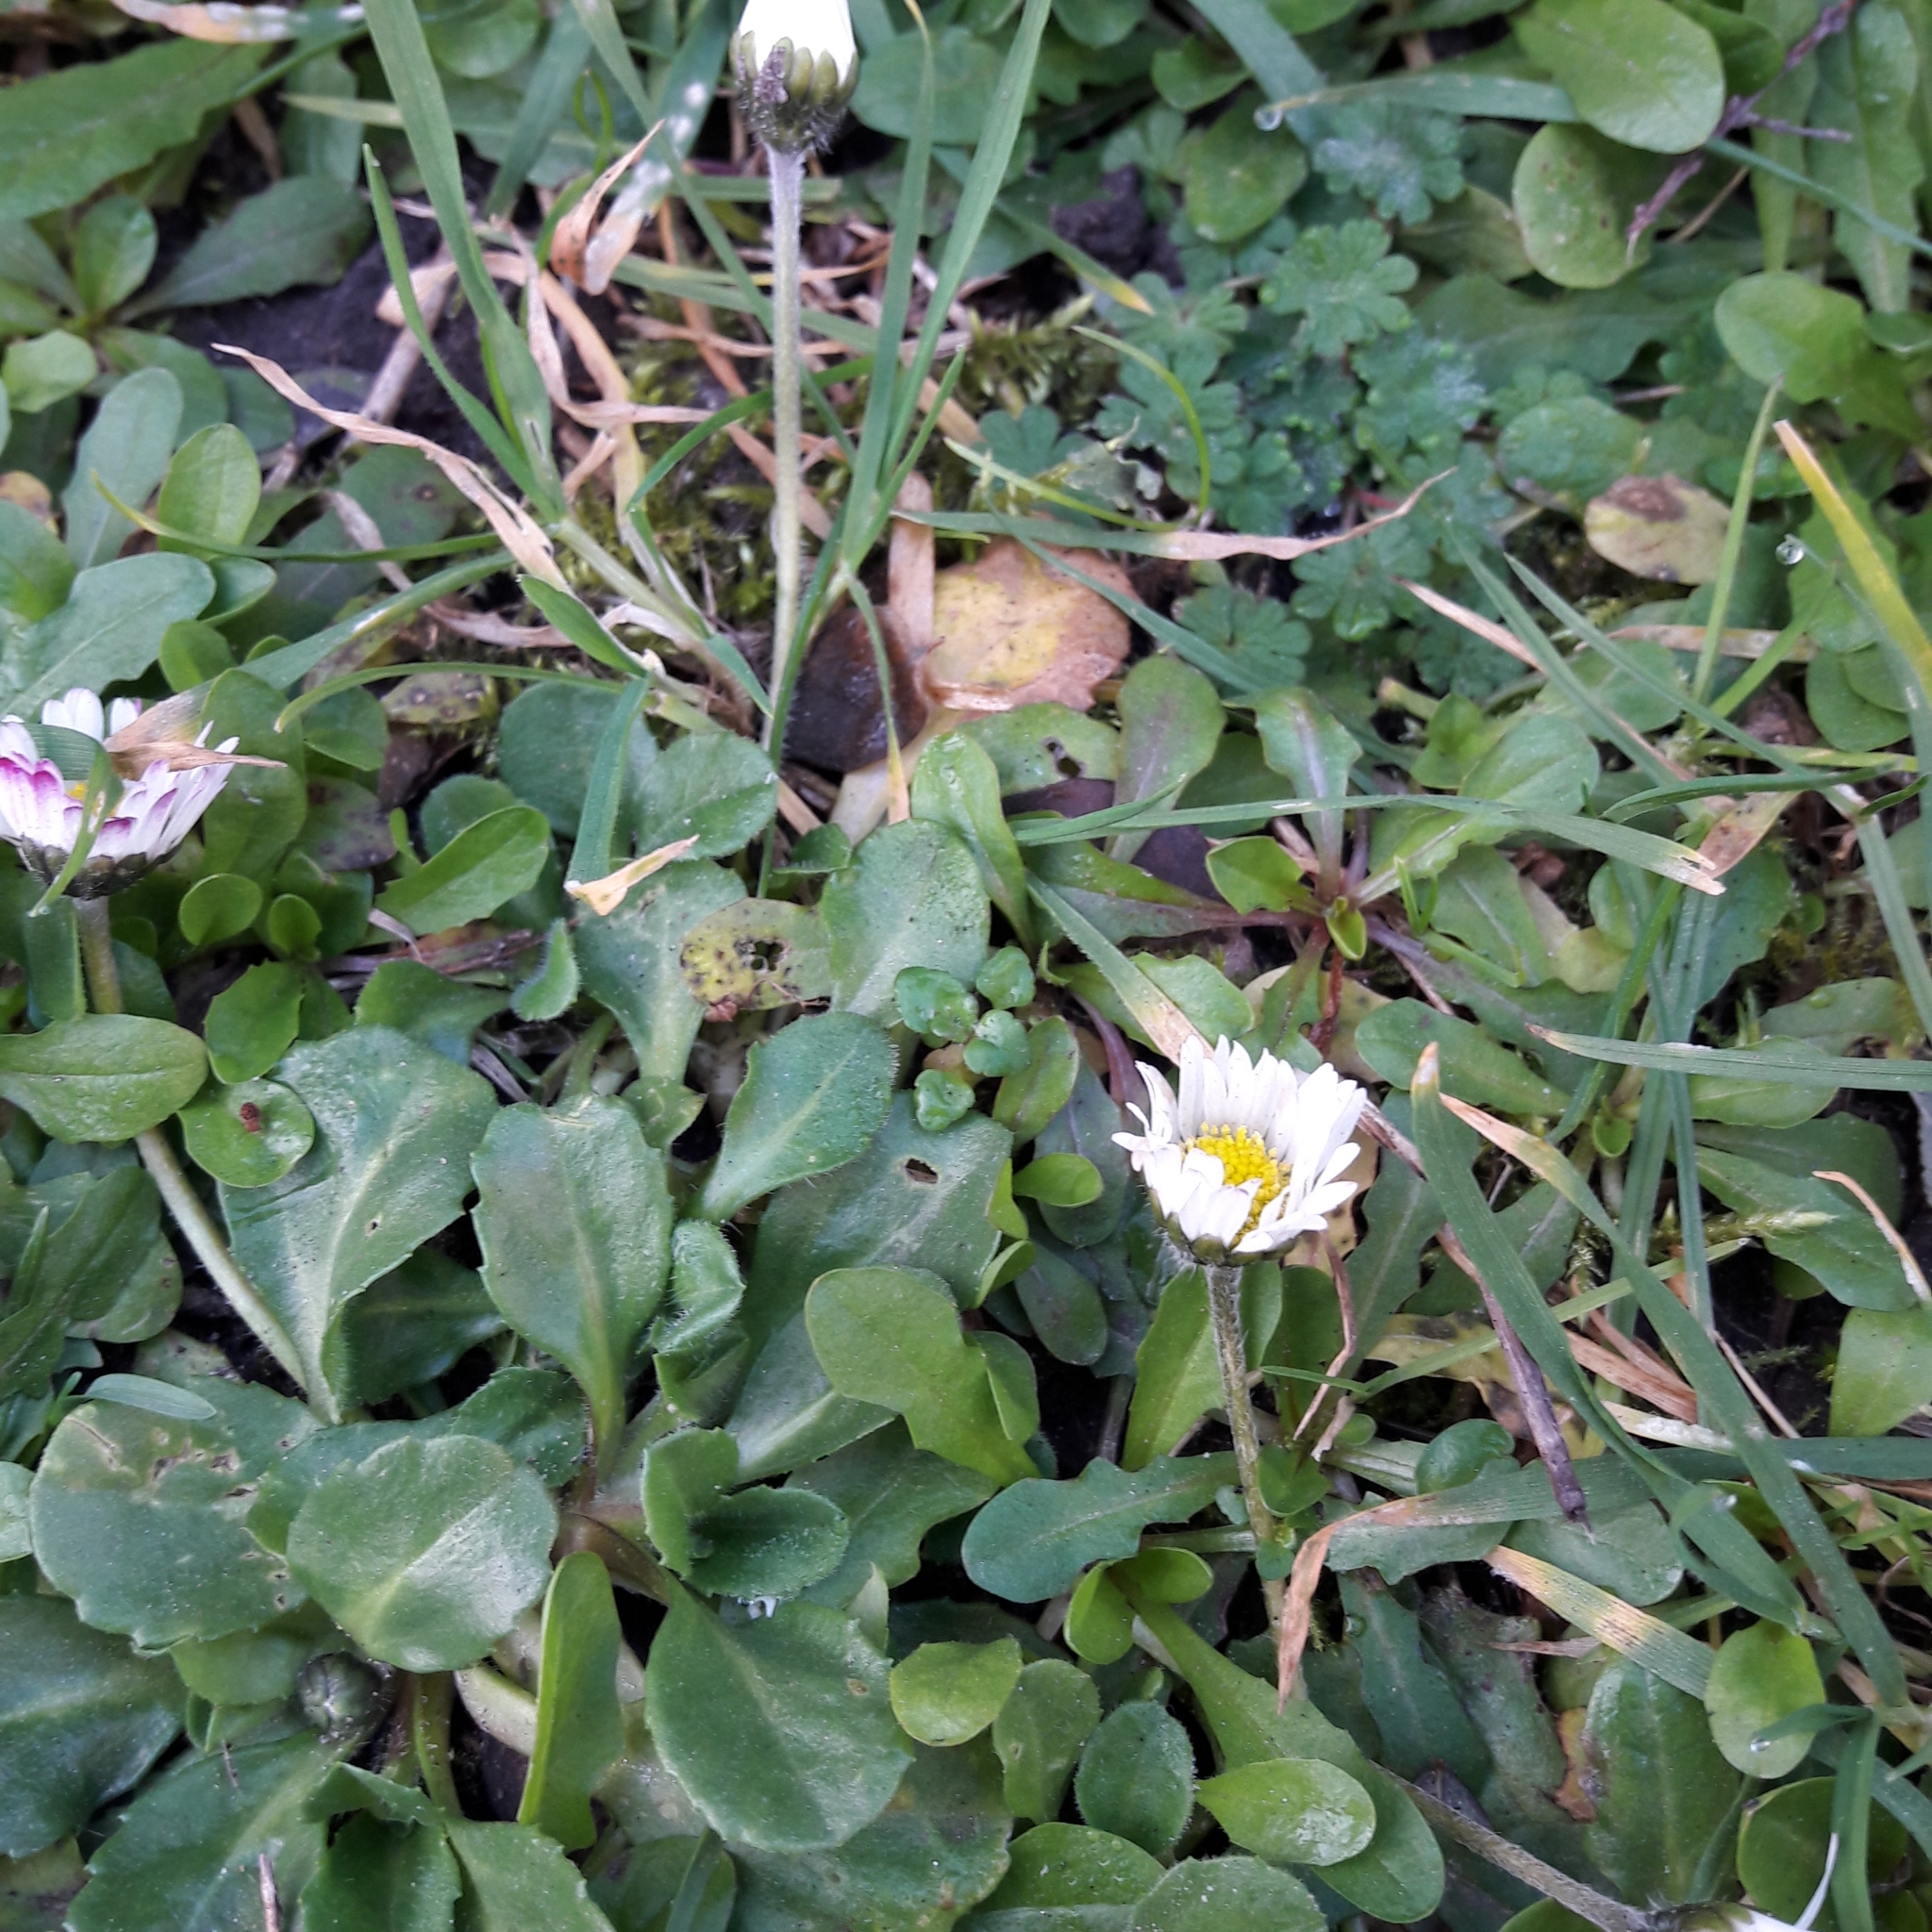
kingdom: Plantae
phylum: Tracheophyta
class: Magnoliopsida
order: Asterales
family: Asteraceae
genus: Bellis
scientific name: Bellis perennis
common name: Lawndaisy
